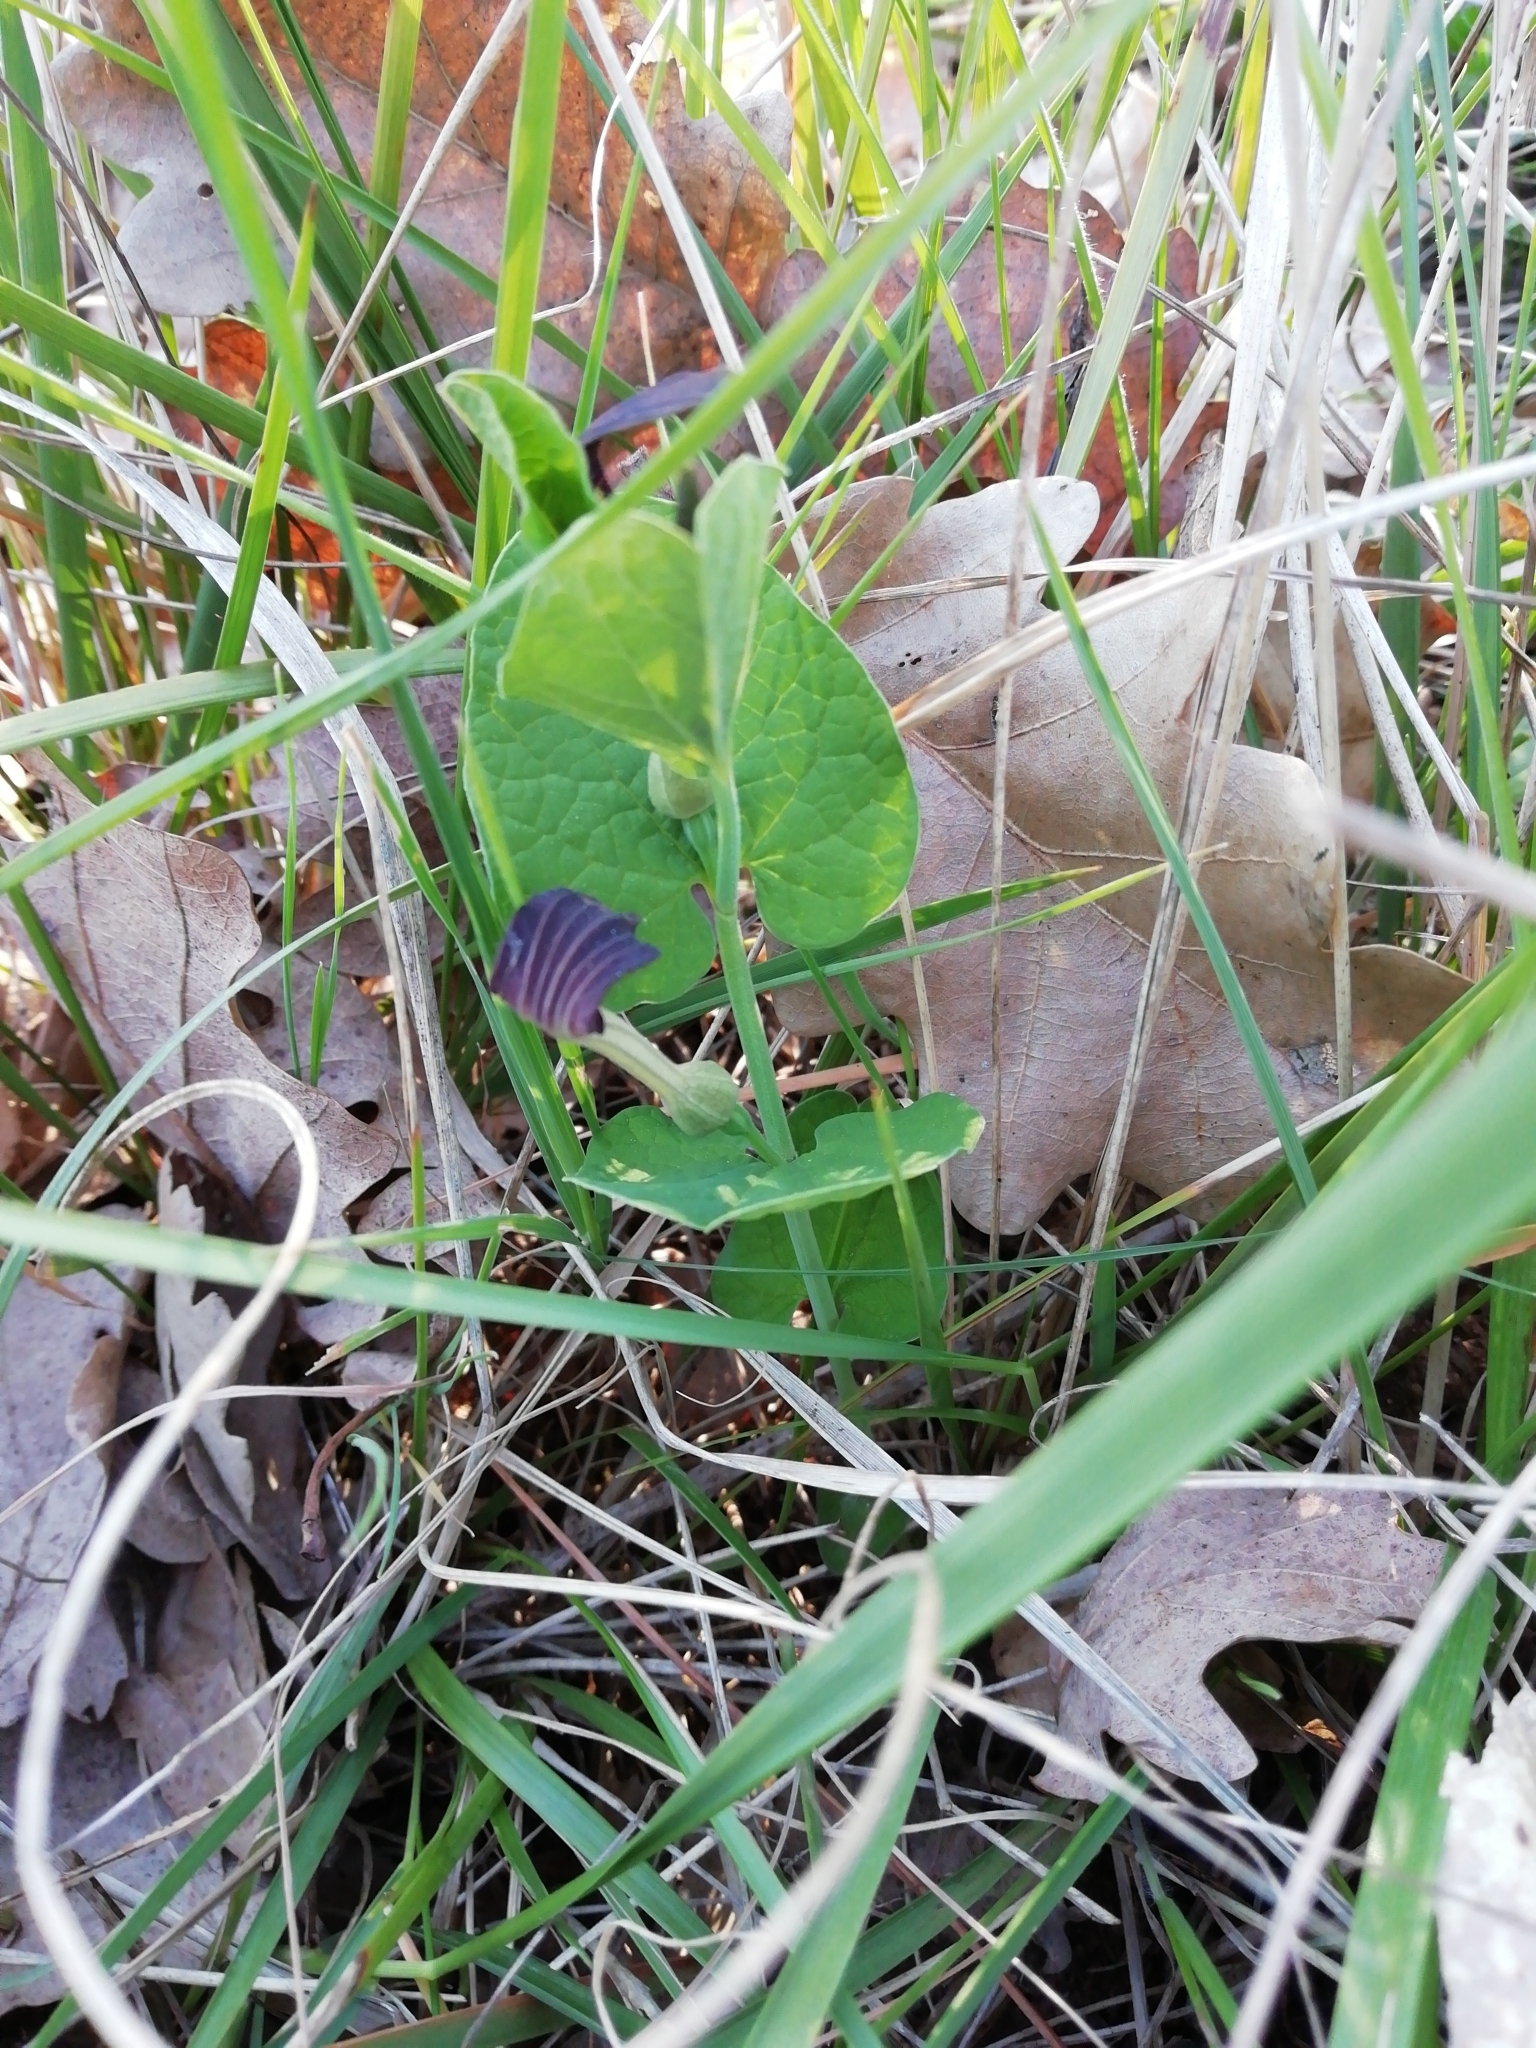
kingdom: Plantae
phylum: Tracheophyta
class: Magnoliopsida
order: Piperales
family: Aristolochiaceae
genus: Aristolochia
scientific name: Aristolochia rotunda
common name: Smearwort
